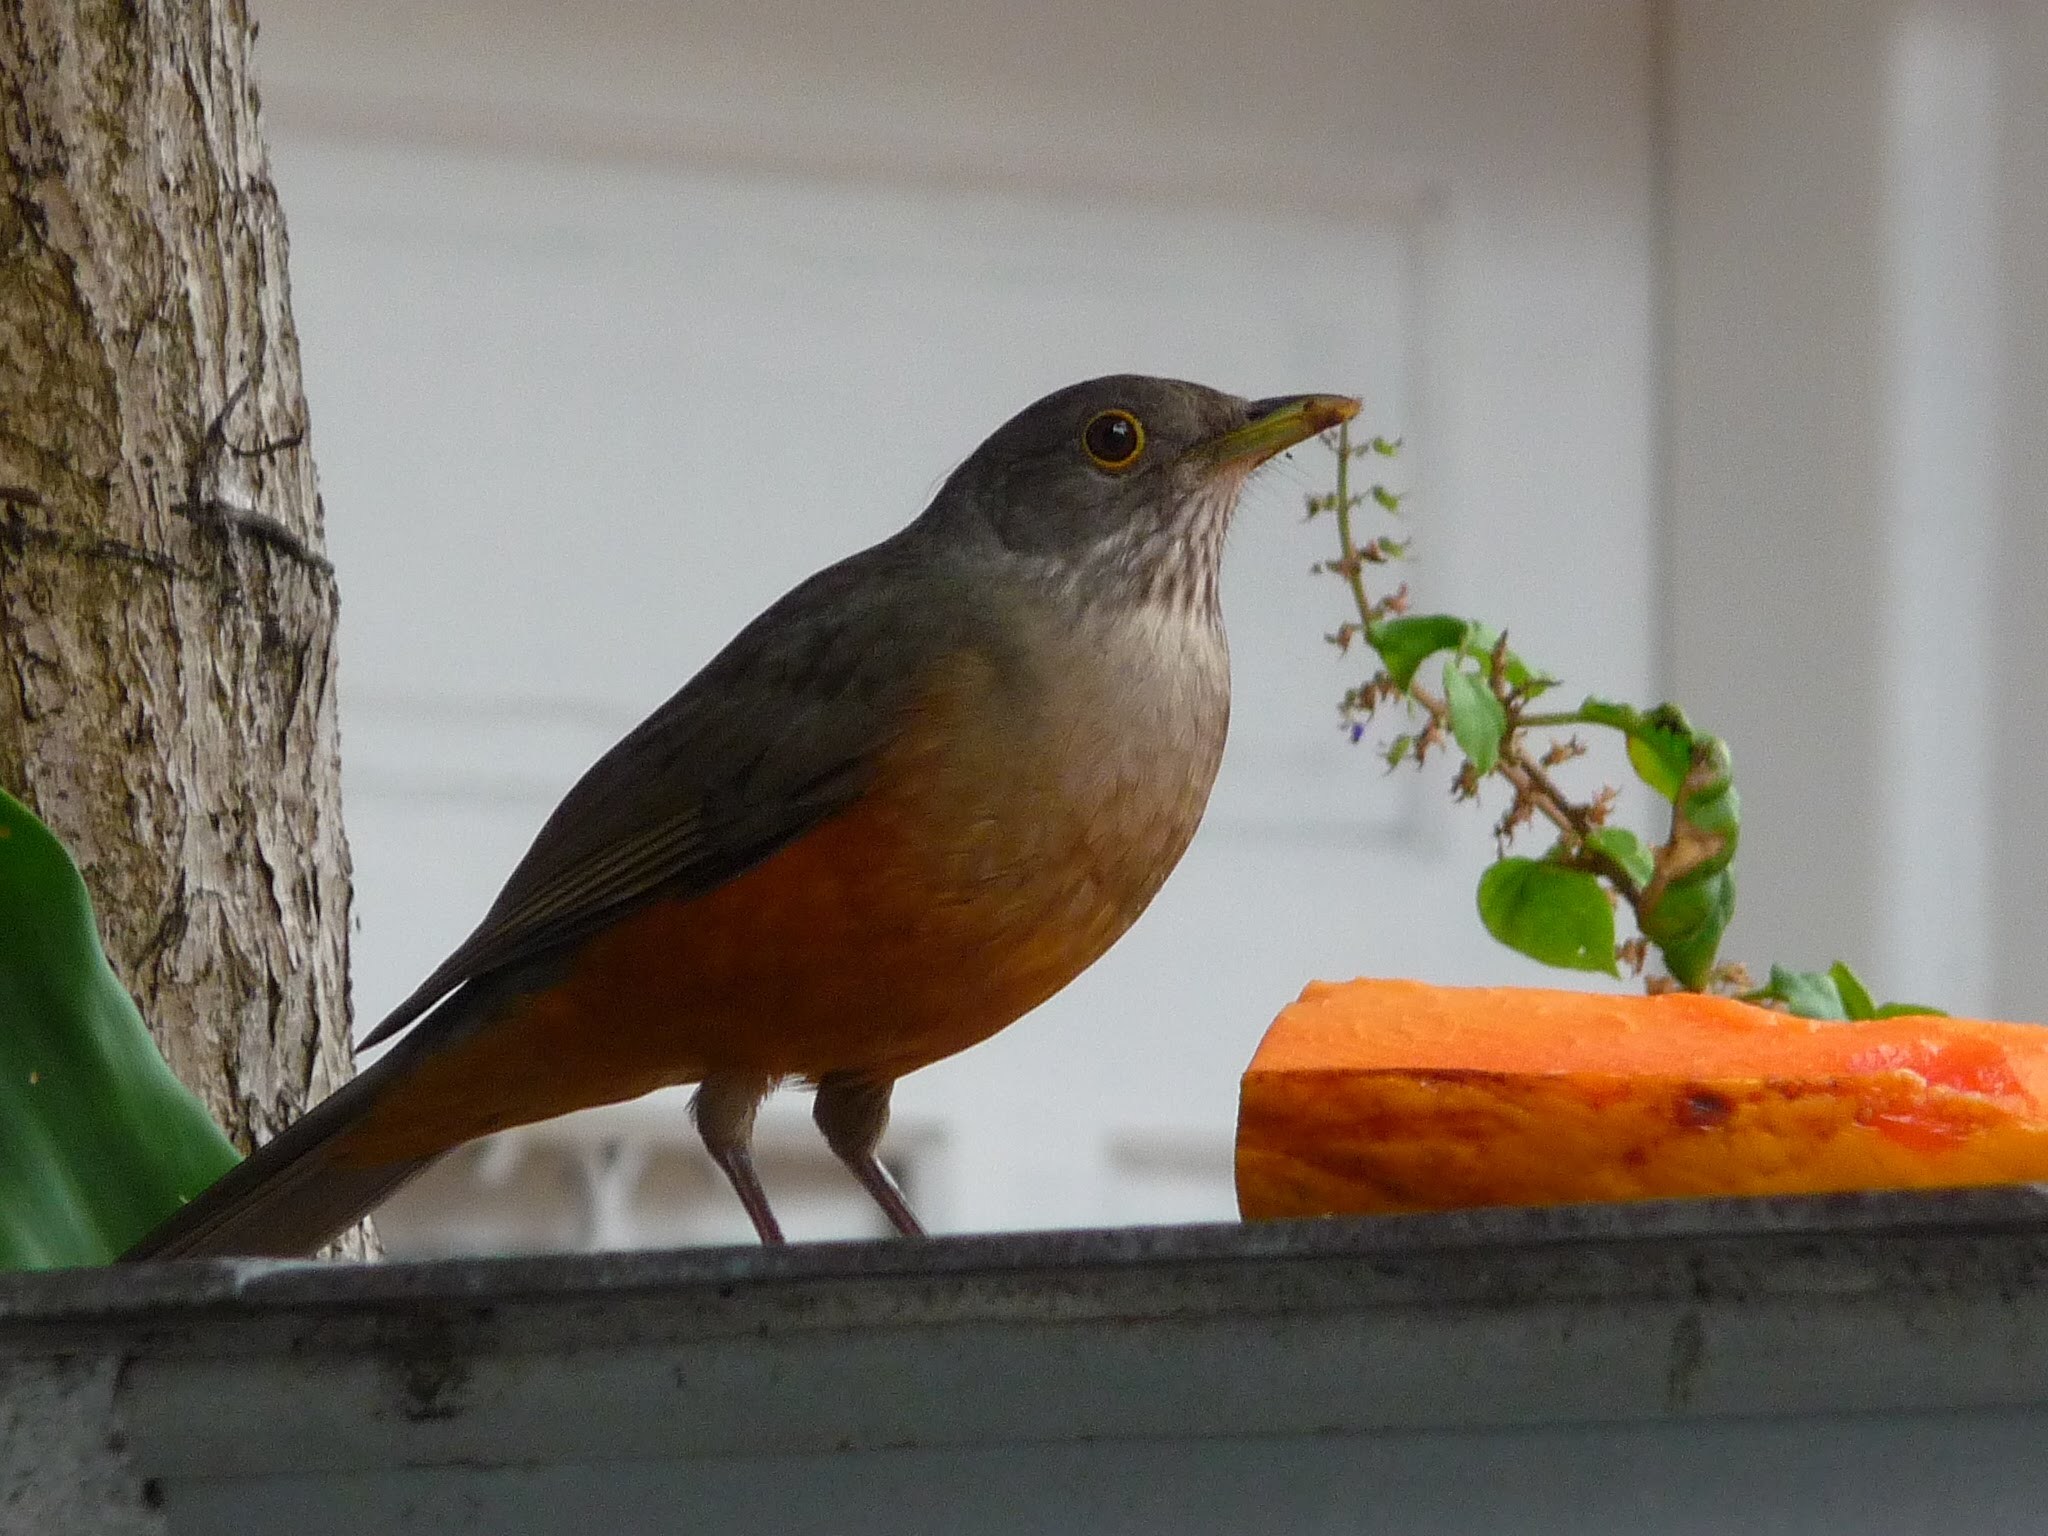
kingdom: Animalia
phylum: Chordata
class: Aves
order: Passeriformes
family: Turdidae
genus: Turdus
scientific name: Turdus rufiventris
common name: Rufous-bellied thrush
